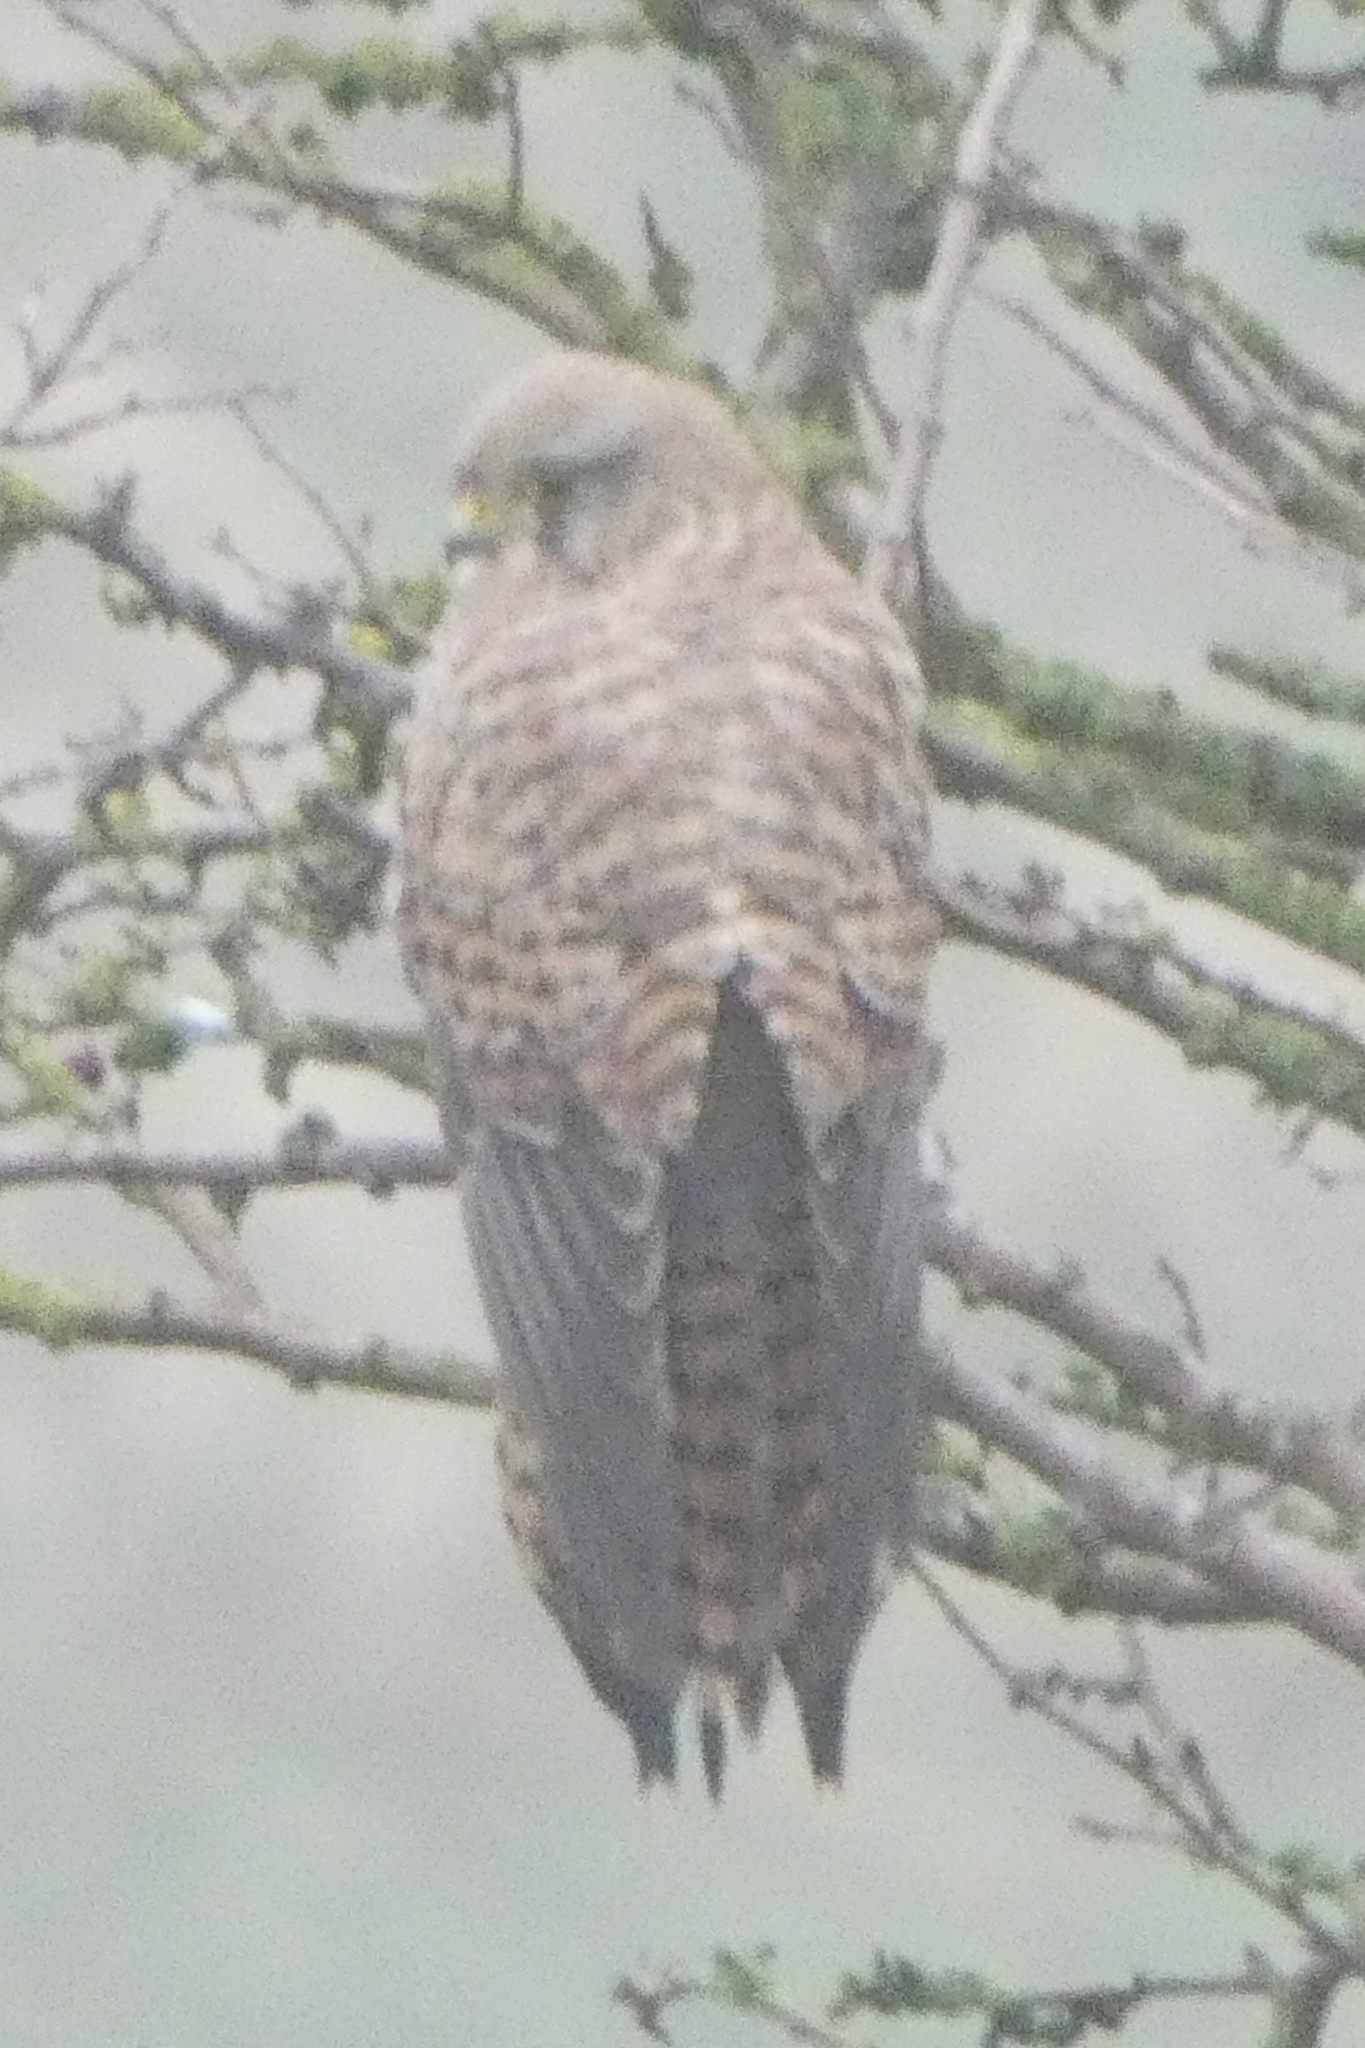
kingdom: Animalia
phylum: Chordata
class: Aves
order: Falconiformes
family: Falconidae
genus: Falco
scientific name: Falco tinnunculus
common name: Common kestrel
